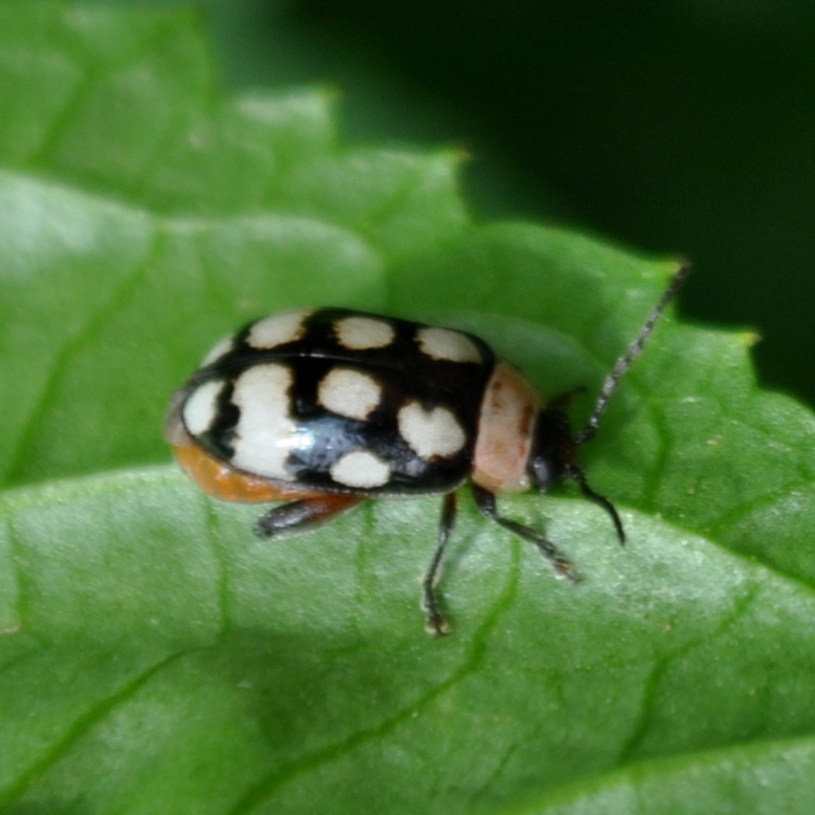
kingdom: Animalia
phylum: Arthropoda
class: Insecta
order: Coleoptera
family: Chrysomelidae
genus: Alagoasa
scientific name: Alagoasa trifasciata
